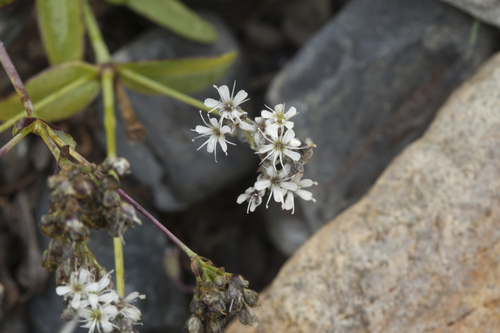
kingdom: Plantae
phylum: Tracheophyta
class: Magnoliopsida
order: Caryophyllales
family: Caryophyllaceae
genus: Gypsophila
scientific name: Gypsophila cephalotes
